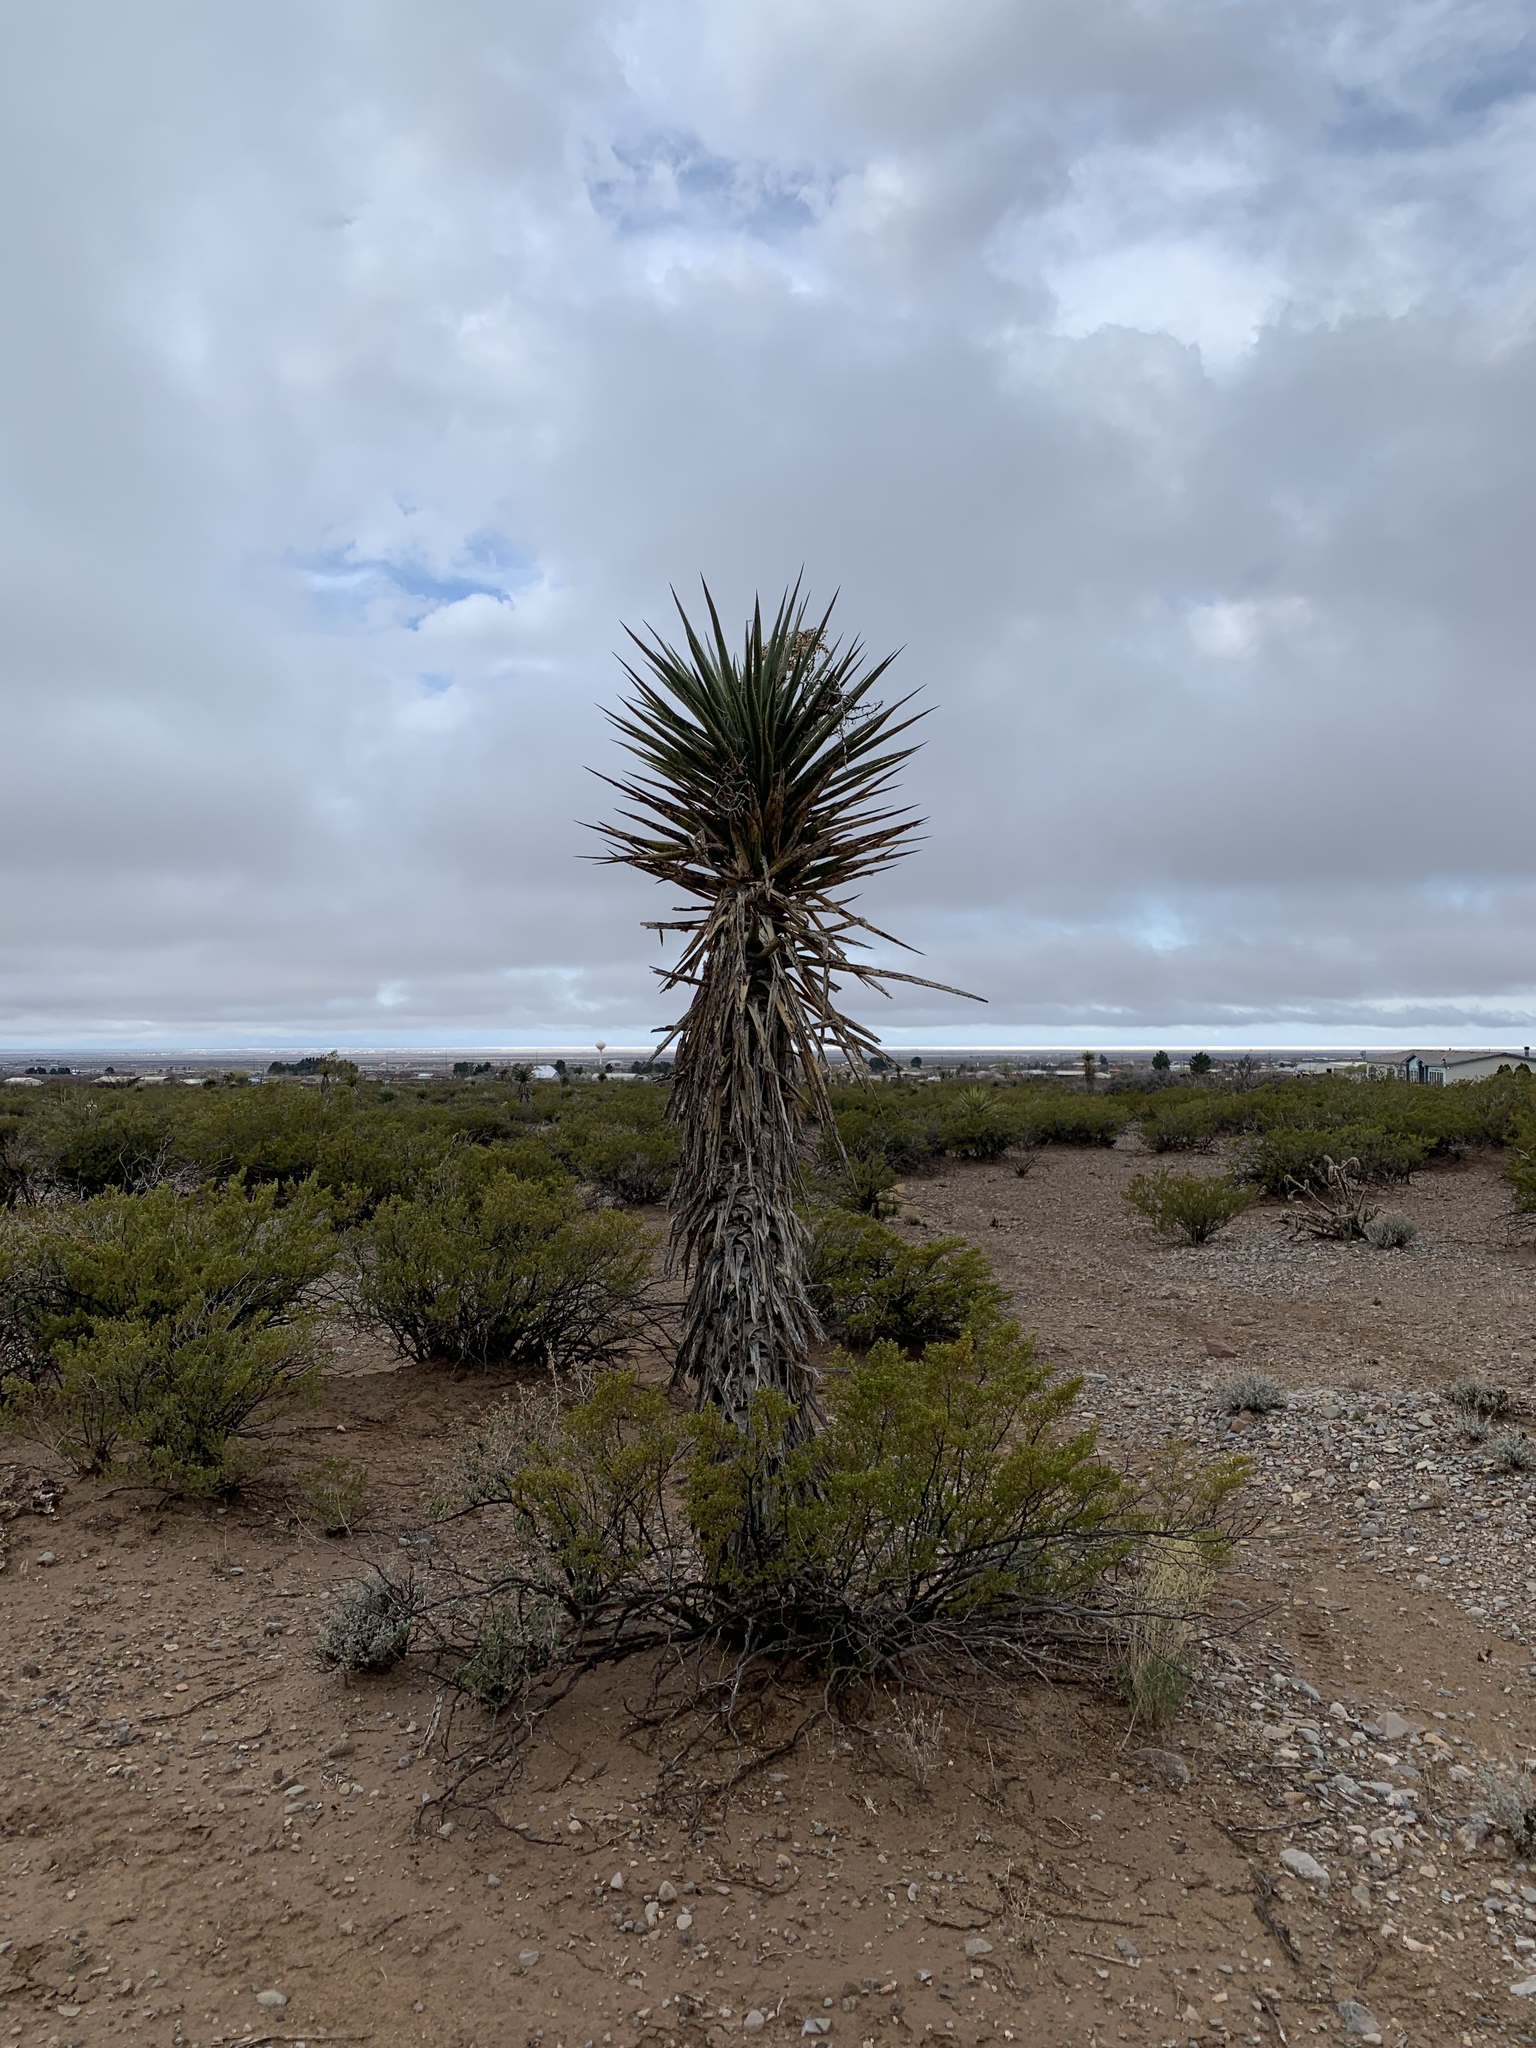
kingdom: Plantae
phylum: Tracheophyta
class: Liliopsida
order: Asparagales
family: Asparagaceae
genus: Yucca
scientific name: Yucca treculiana
